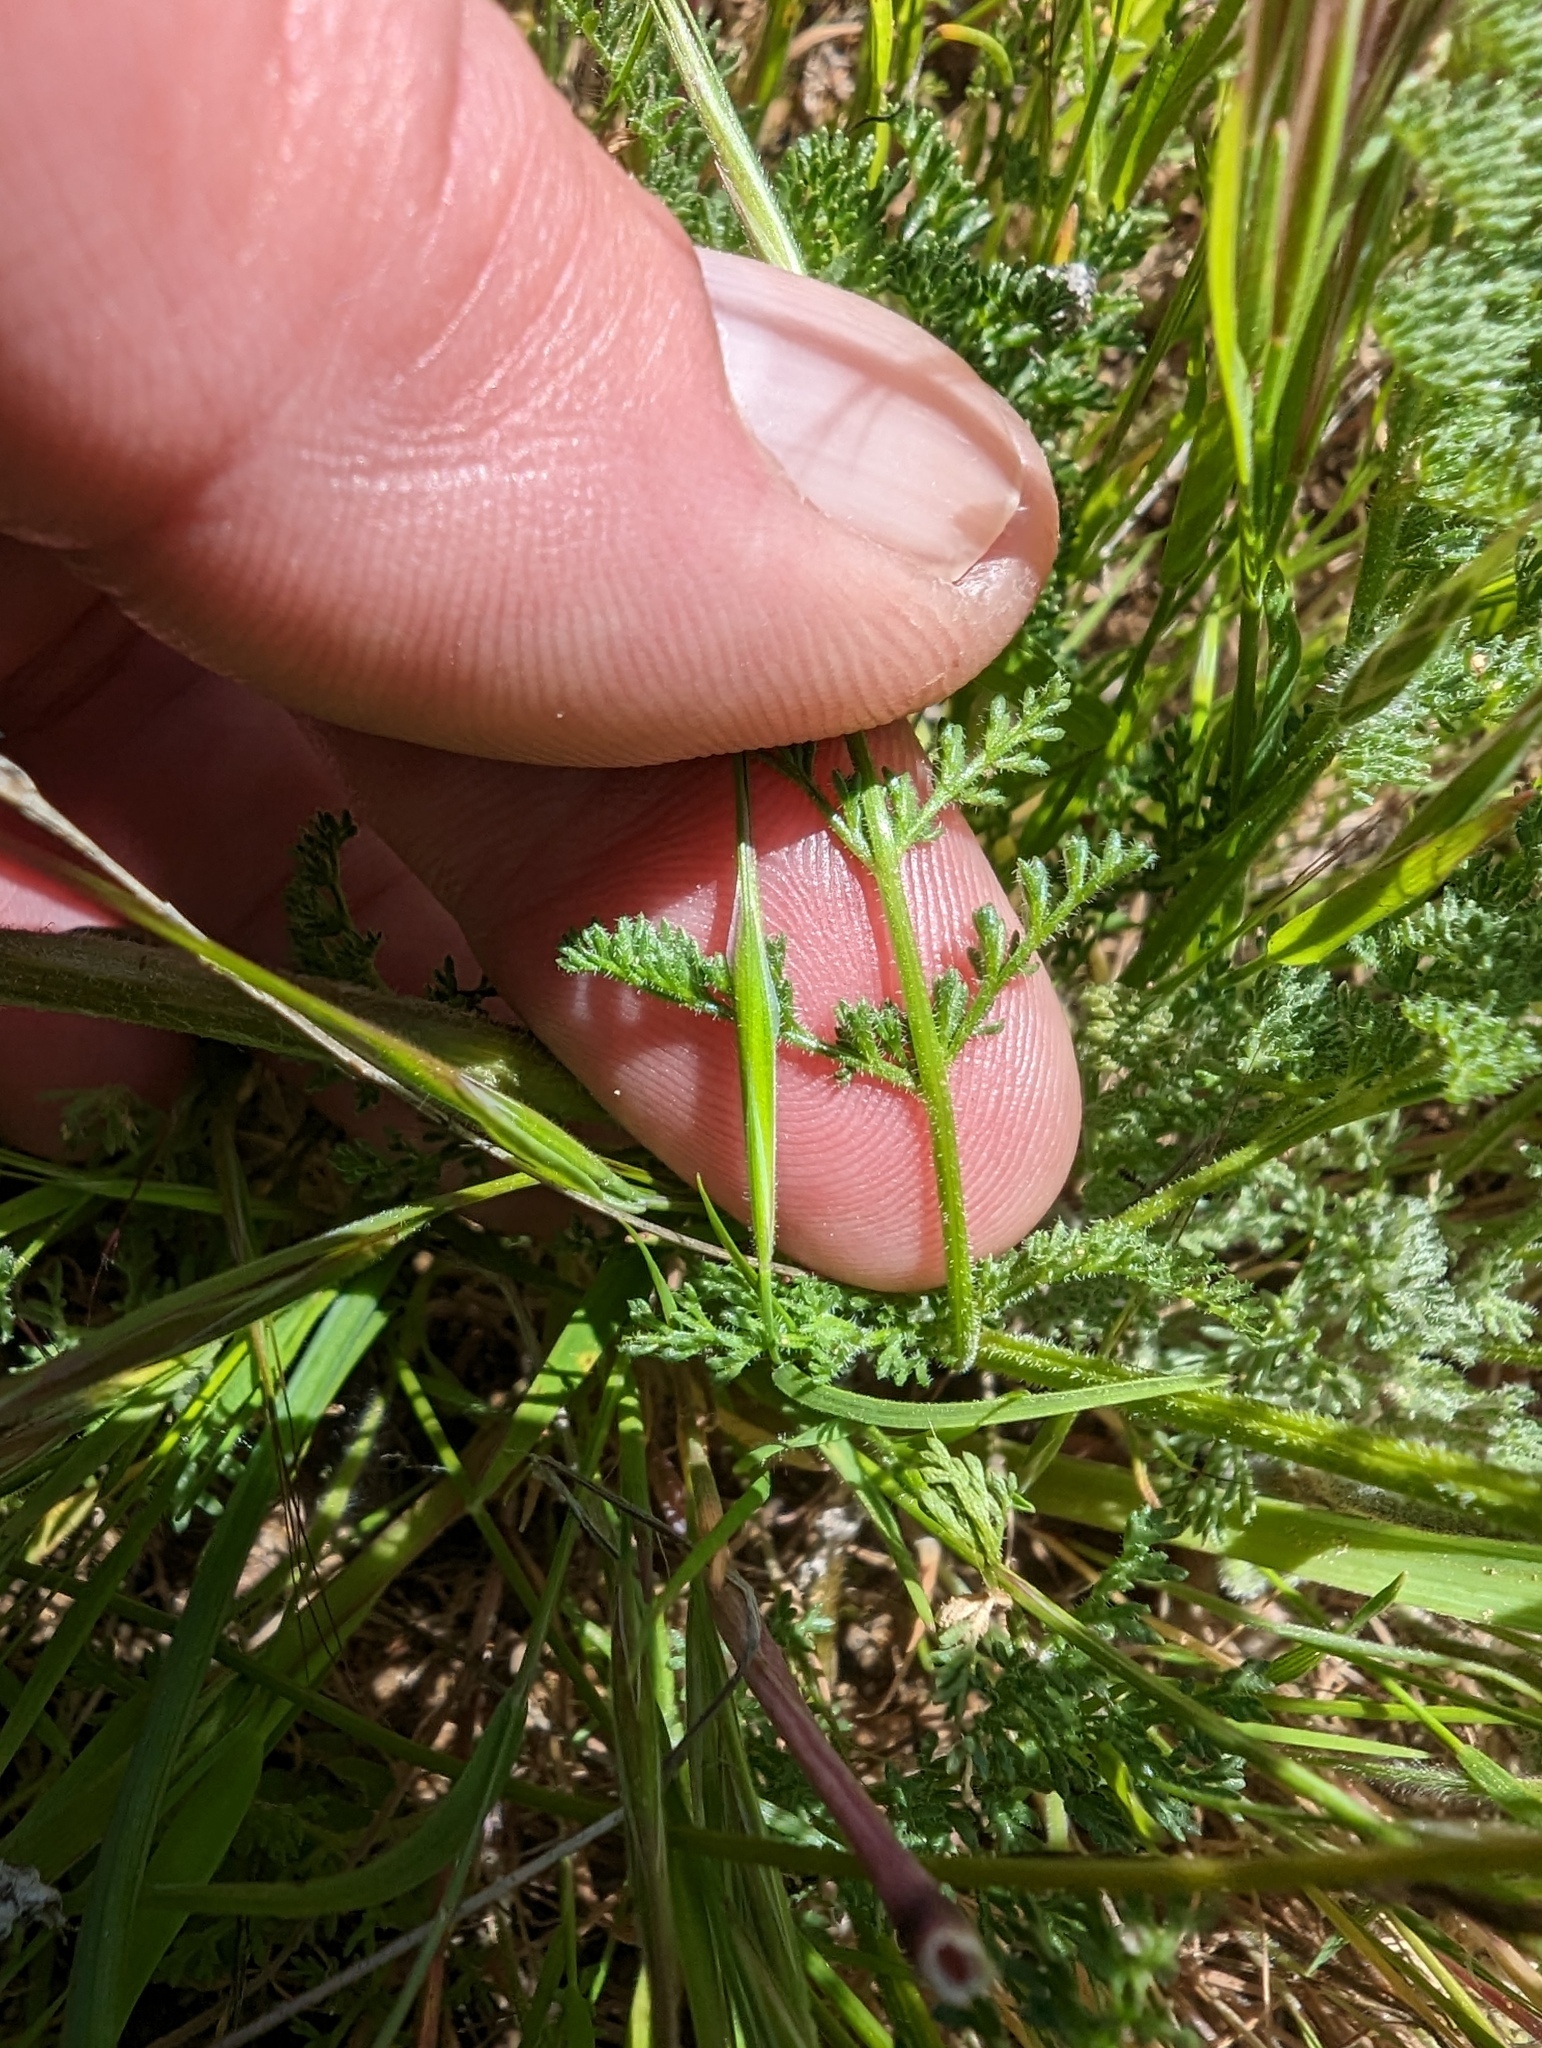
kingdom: Plantae
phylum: Tracheophyta
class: Magnoliopsida
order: Apiales
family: Apiaceae
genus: Lomatium
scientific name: Lomatium dasycarpum
